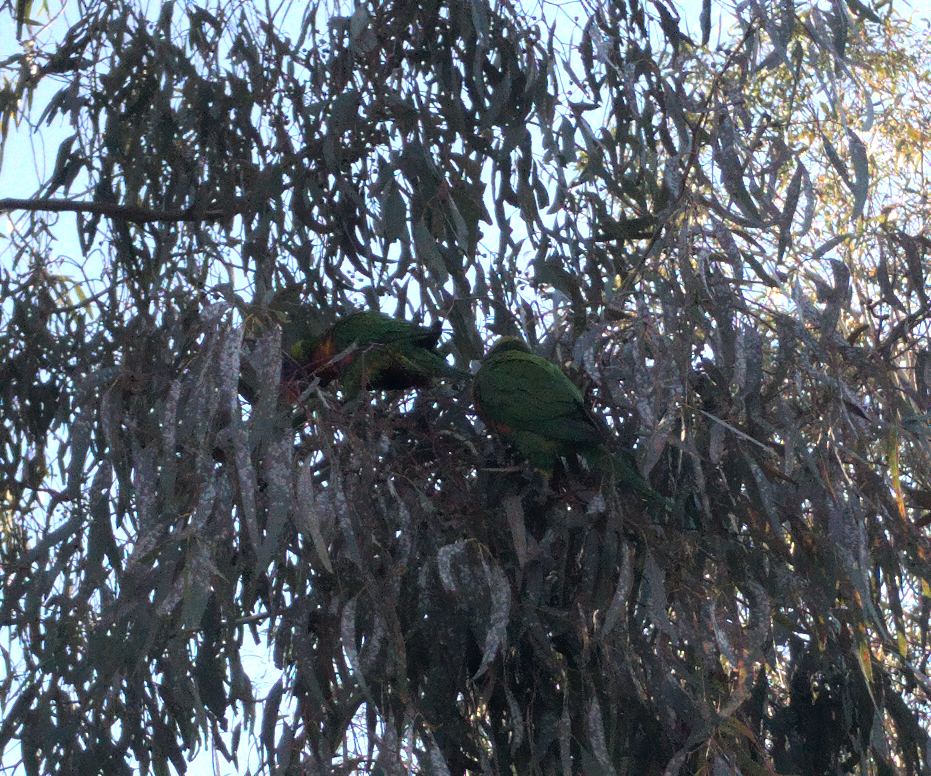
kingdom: Animalia
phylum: Chordata
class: Aves
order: Psittaciformes
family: Psittacidae
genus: Trichoglossus
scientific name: Trichoglossus haematodus
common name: Coconut lorikeet
